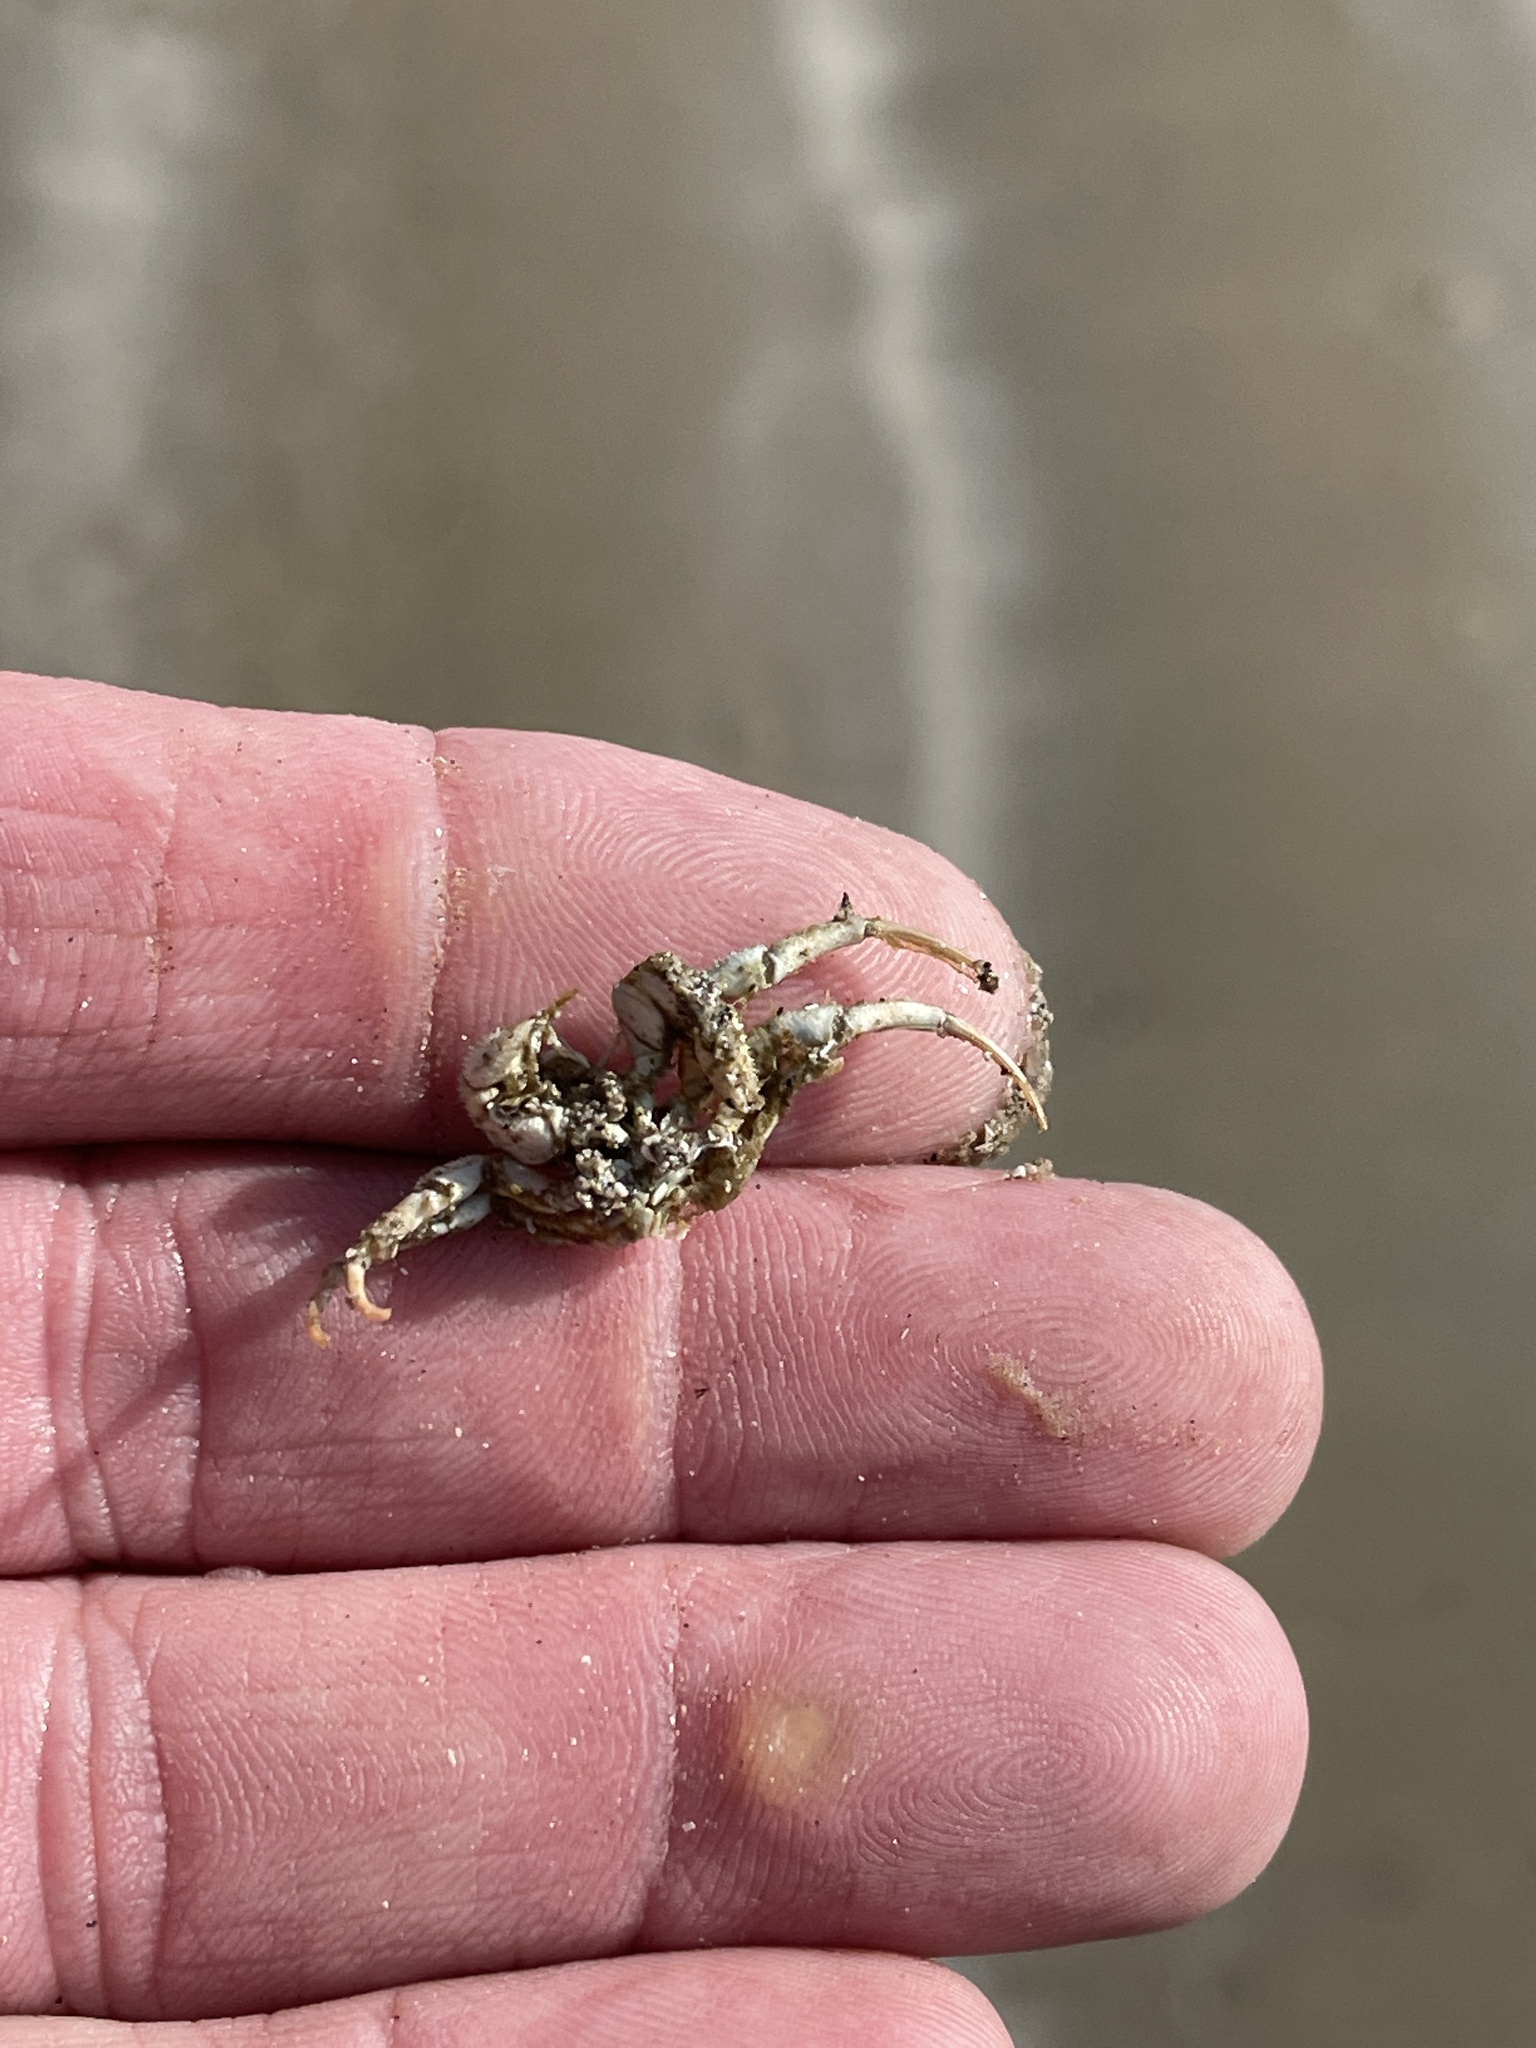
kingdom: Animalia
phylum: Arthropoda
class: Malacostraca
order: Decapoda
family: Diogenidae
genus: Isocheles
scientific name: Isocheles wurdemanni
